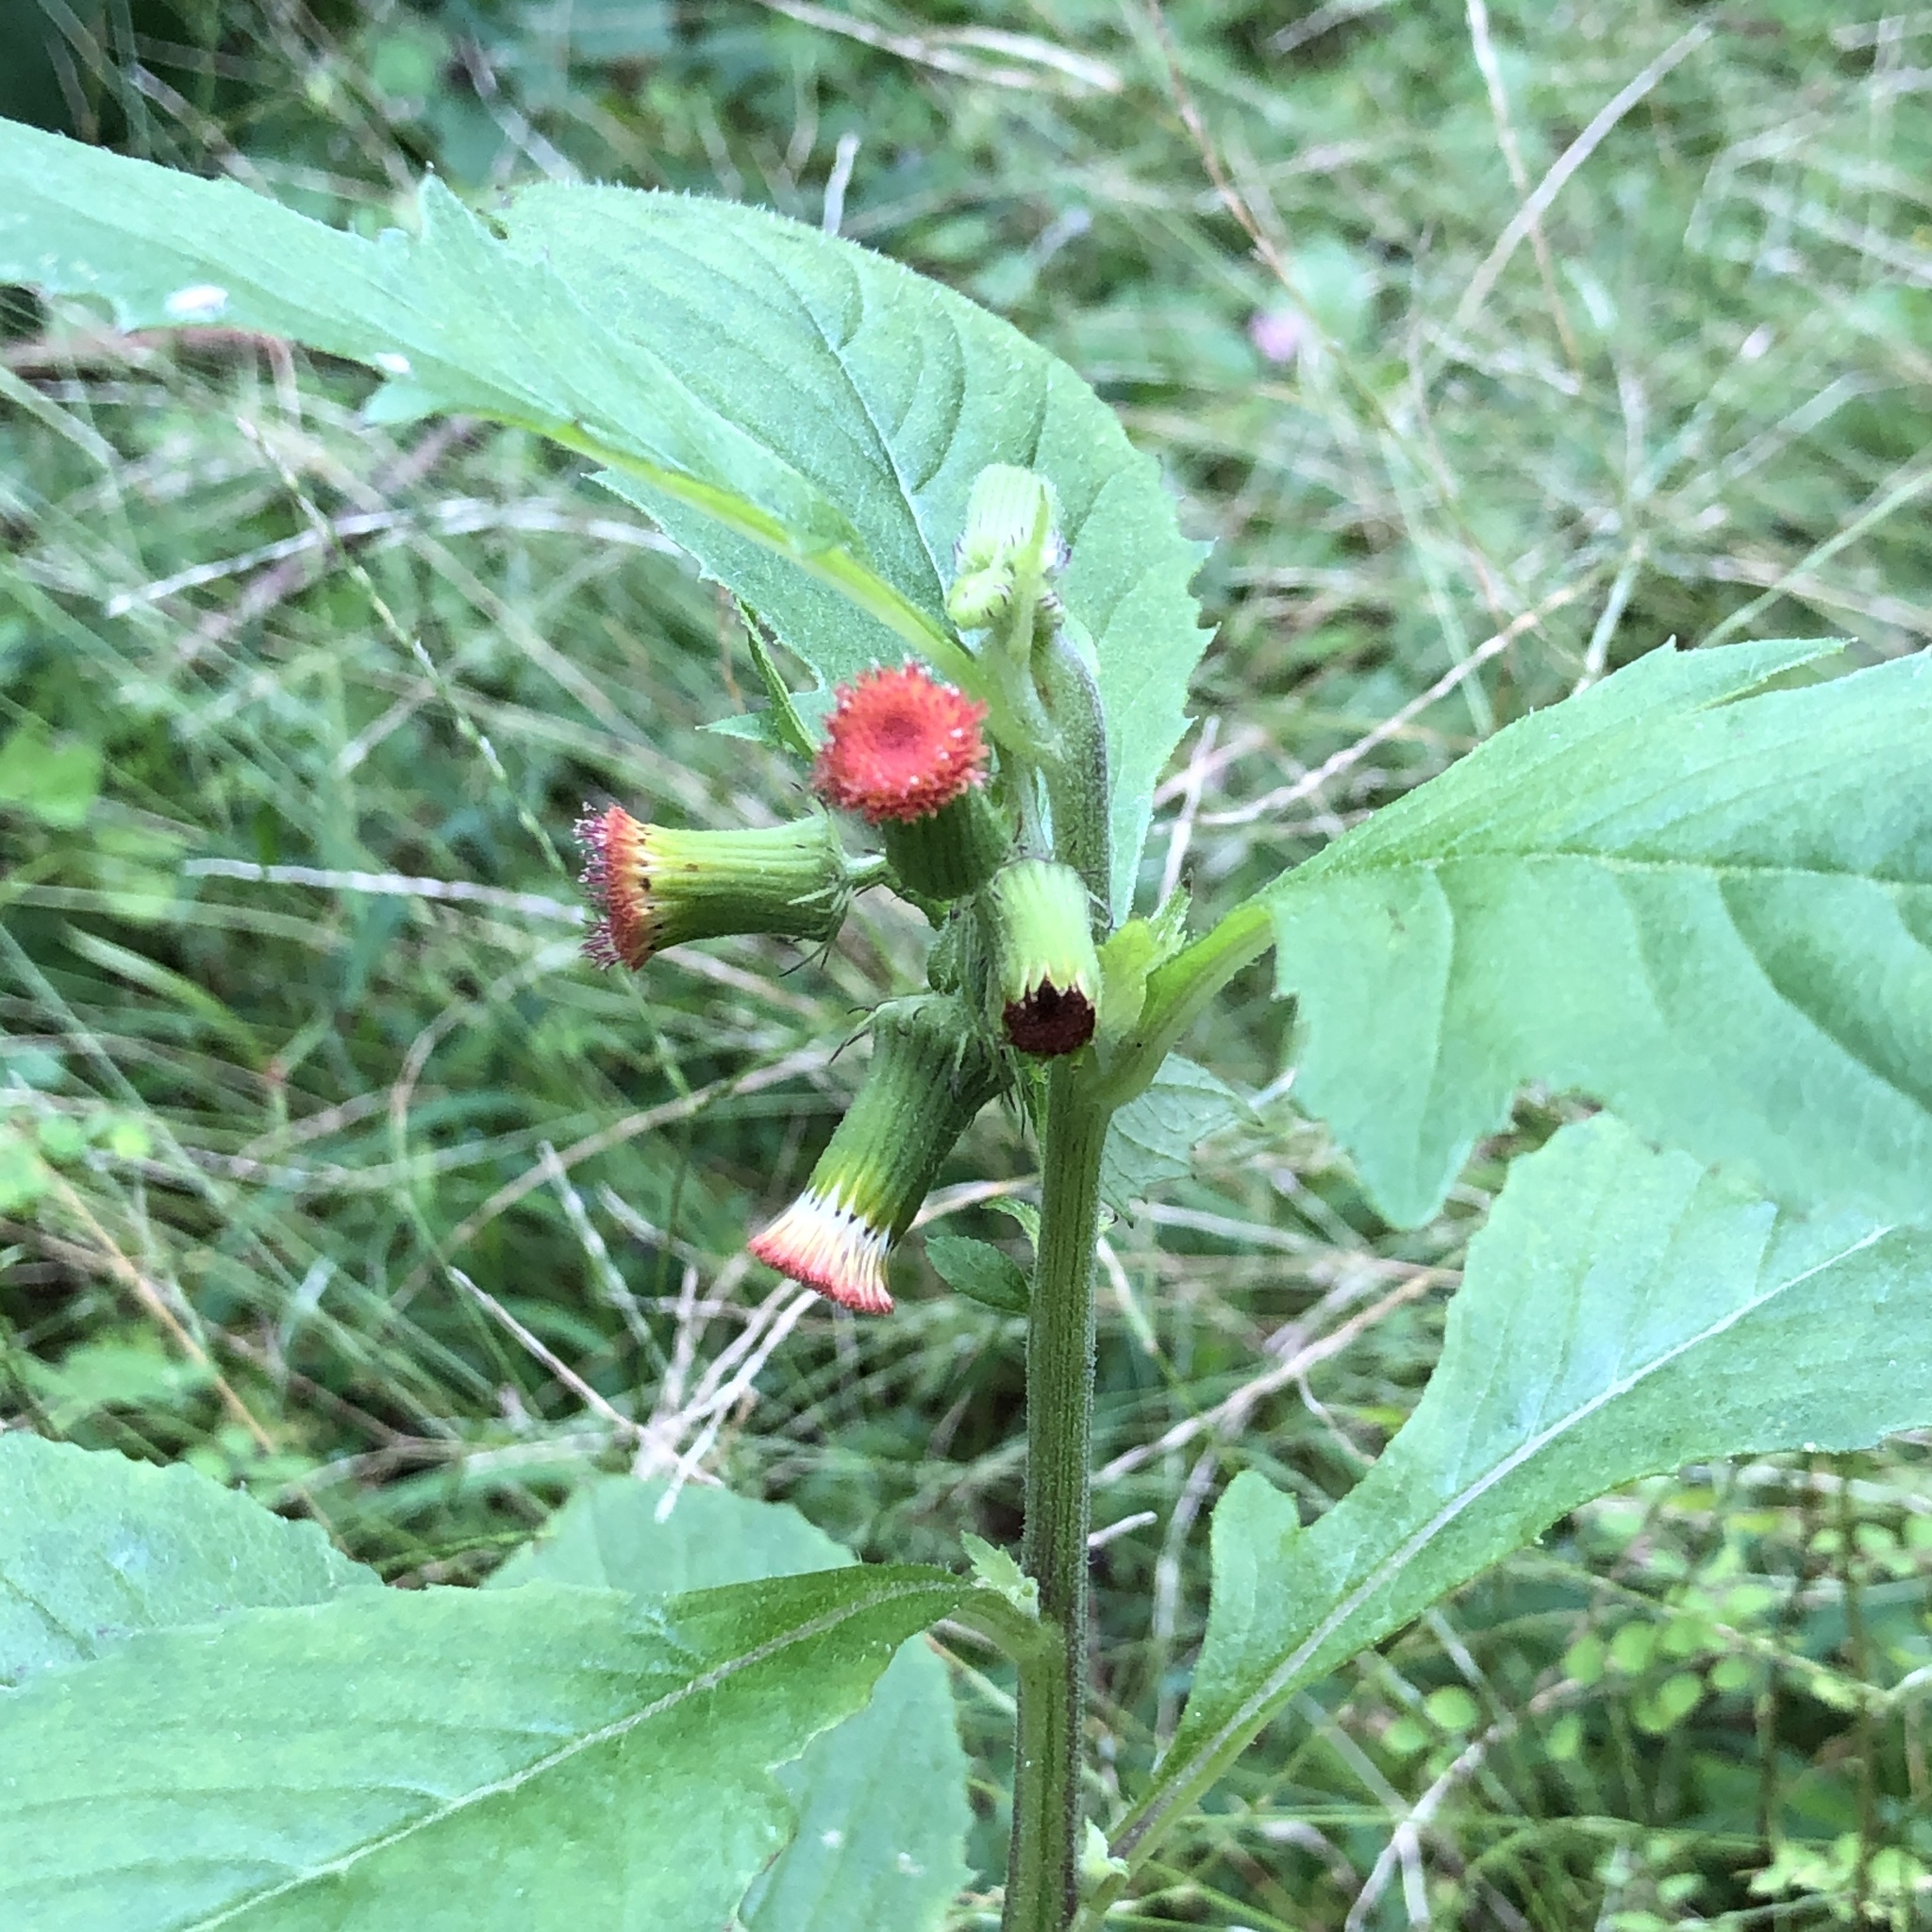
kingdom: Plantae
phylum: Tracheophyta
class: Magnoliopsida
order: Asterales
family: Asteraceae
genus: Crassocephalum
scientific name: Crassocephalum crepidioides
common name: Redflower ragleaf
